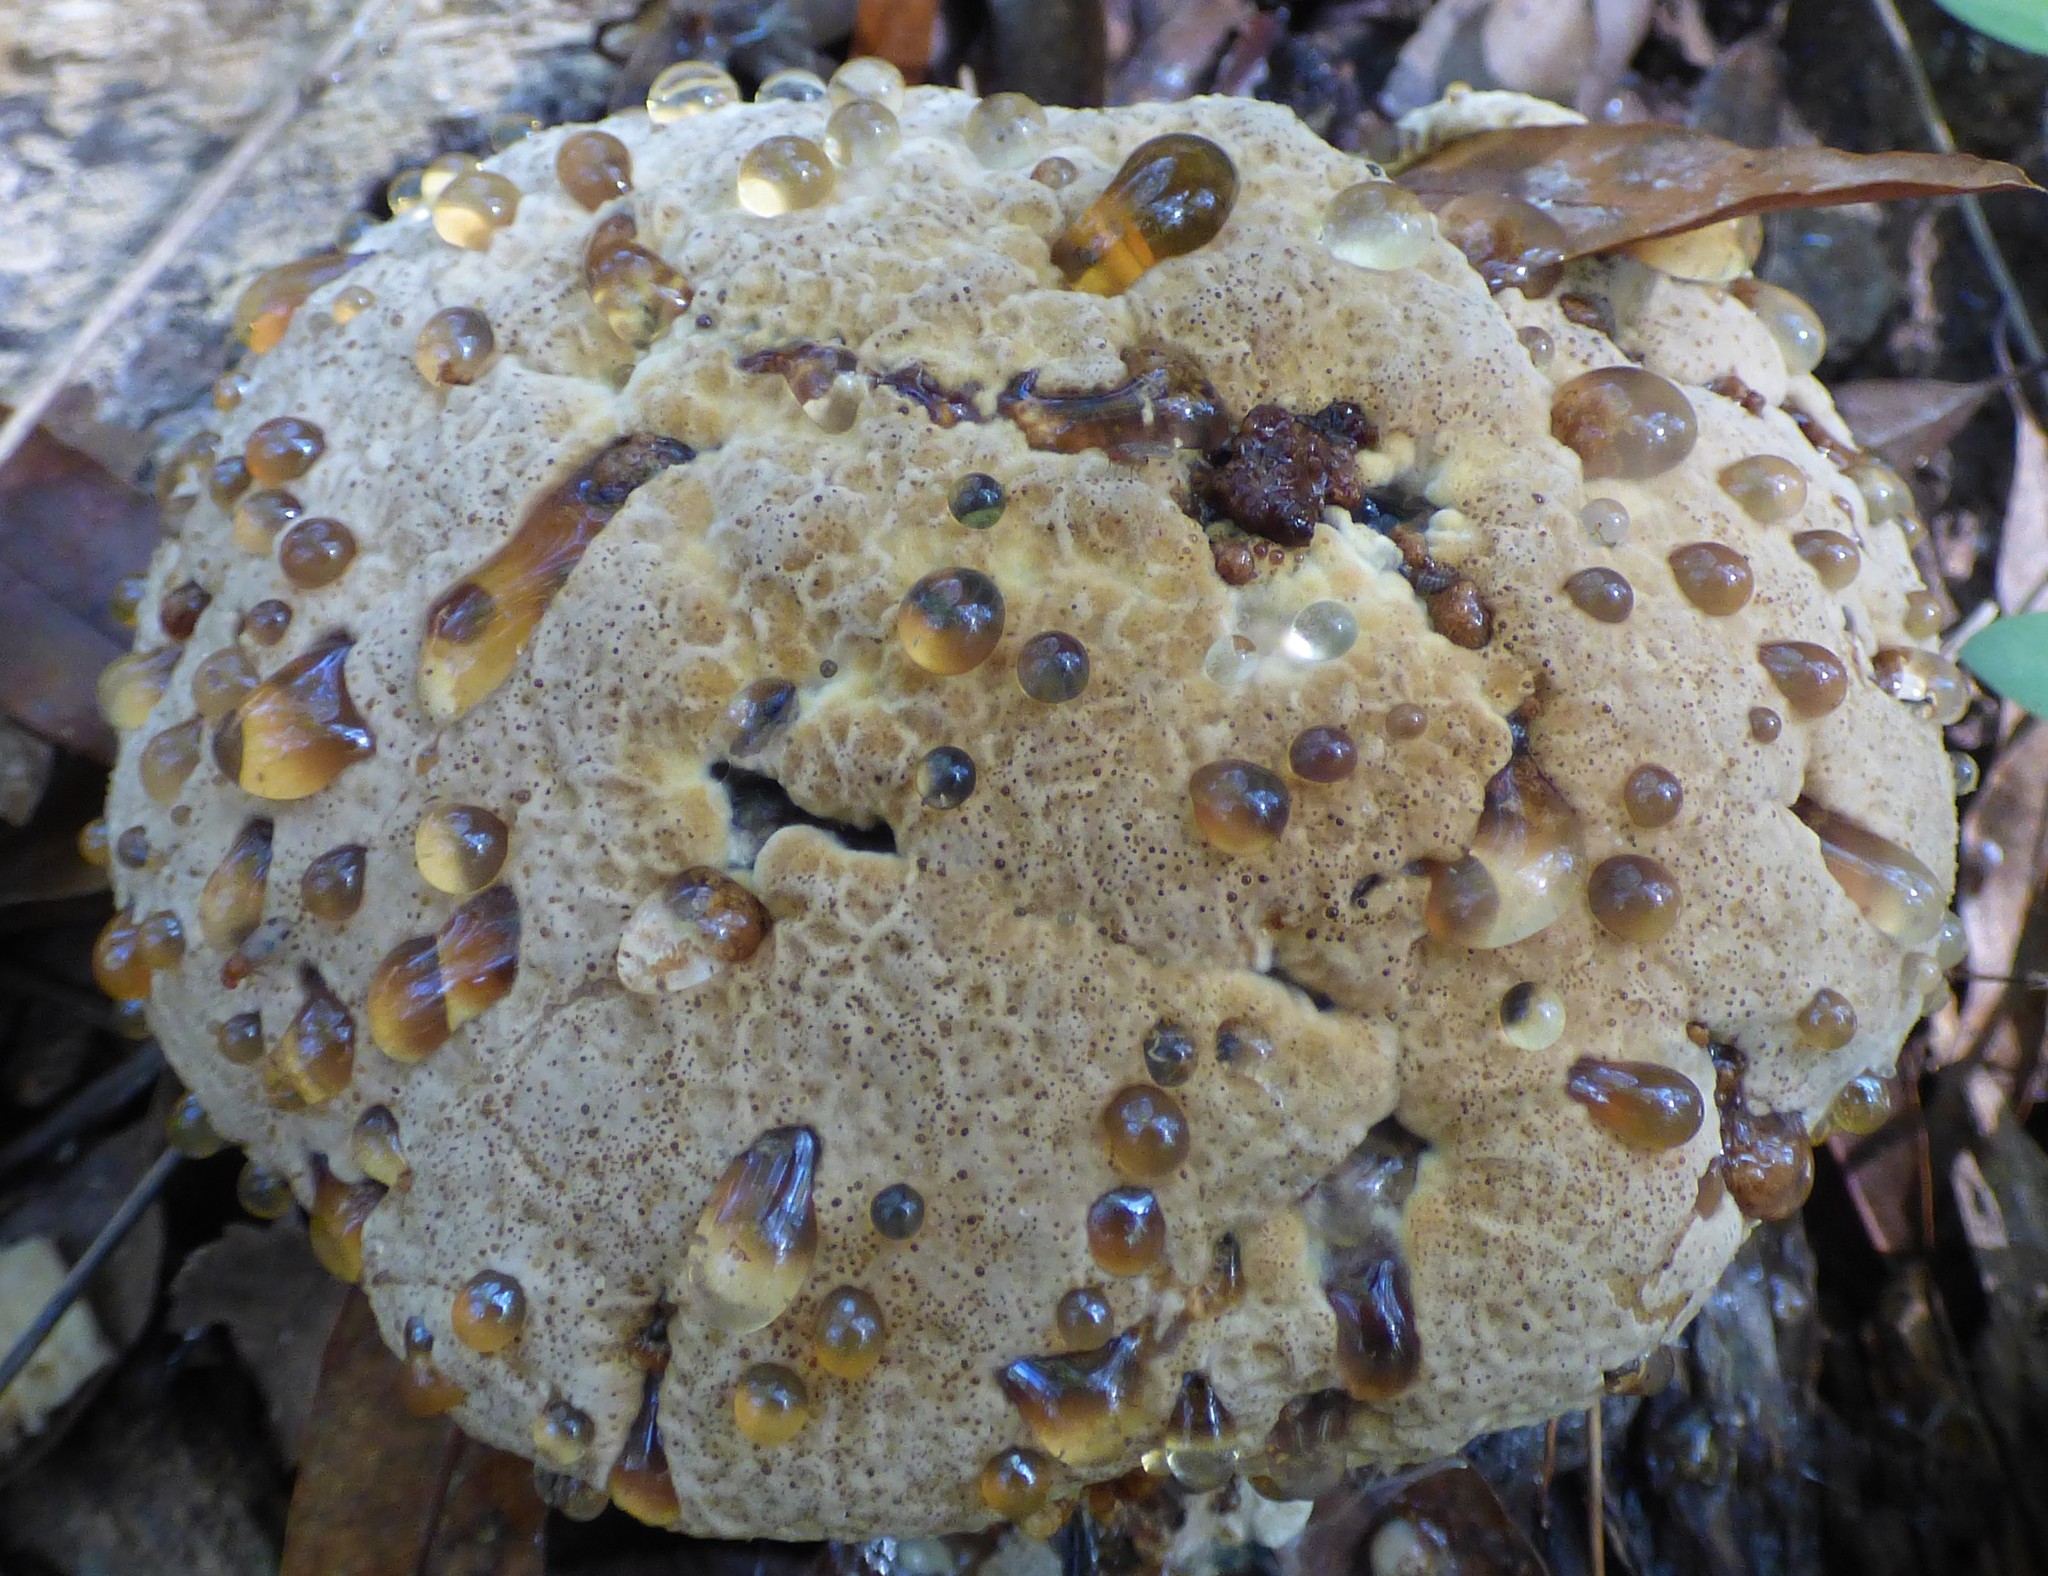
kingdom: Fungi
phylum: Basidiomycota
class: Agaricomycetes
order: Hymenochaetales
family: Hymenochaetaceae
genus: Pseudoinonotus
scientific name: Pseudoinonotus dryadeus
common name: Oak bracket
